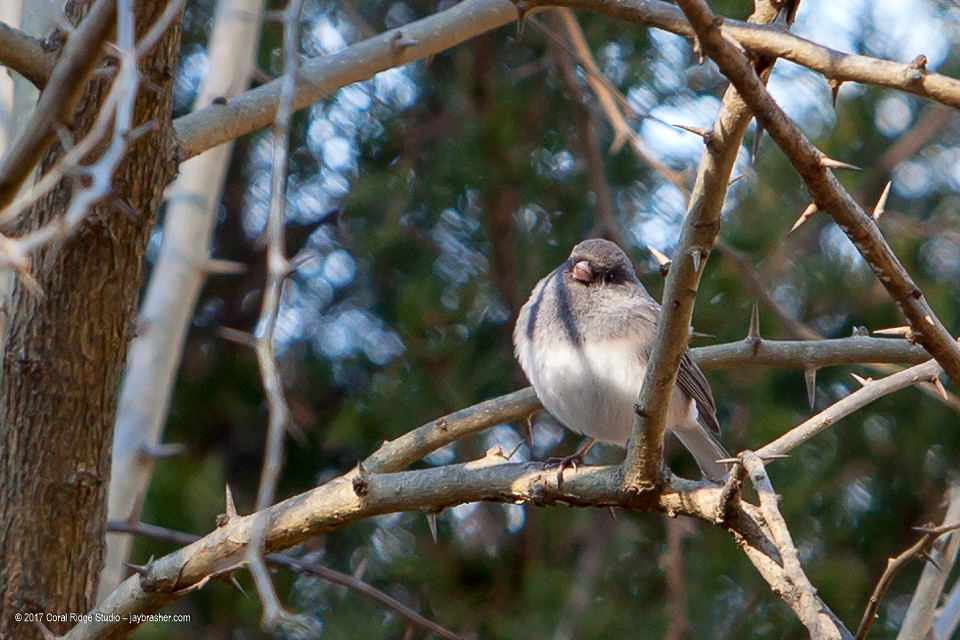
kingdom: Animalia
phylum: Chordata
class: Aves
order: Passeriformes
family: Passerellidae
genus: Junco
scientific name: Junco hyemalis
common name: Dark-eyed junco
